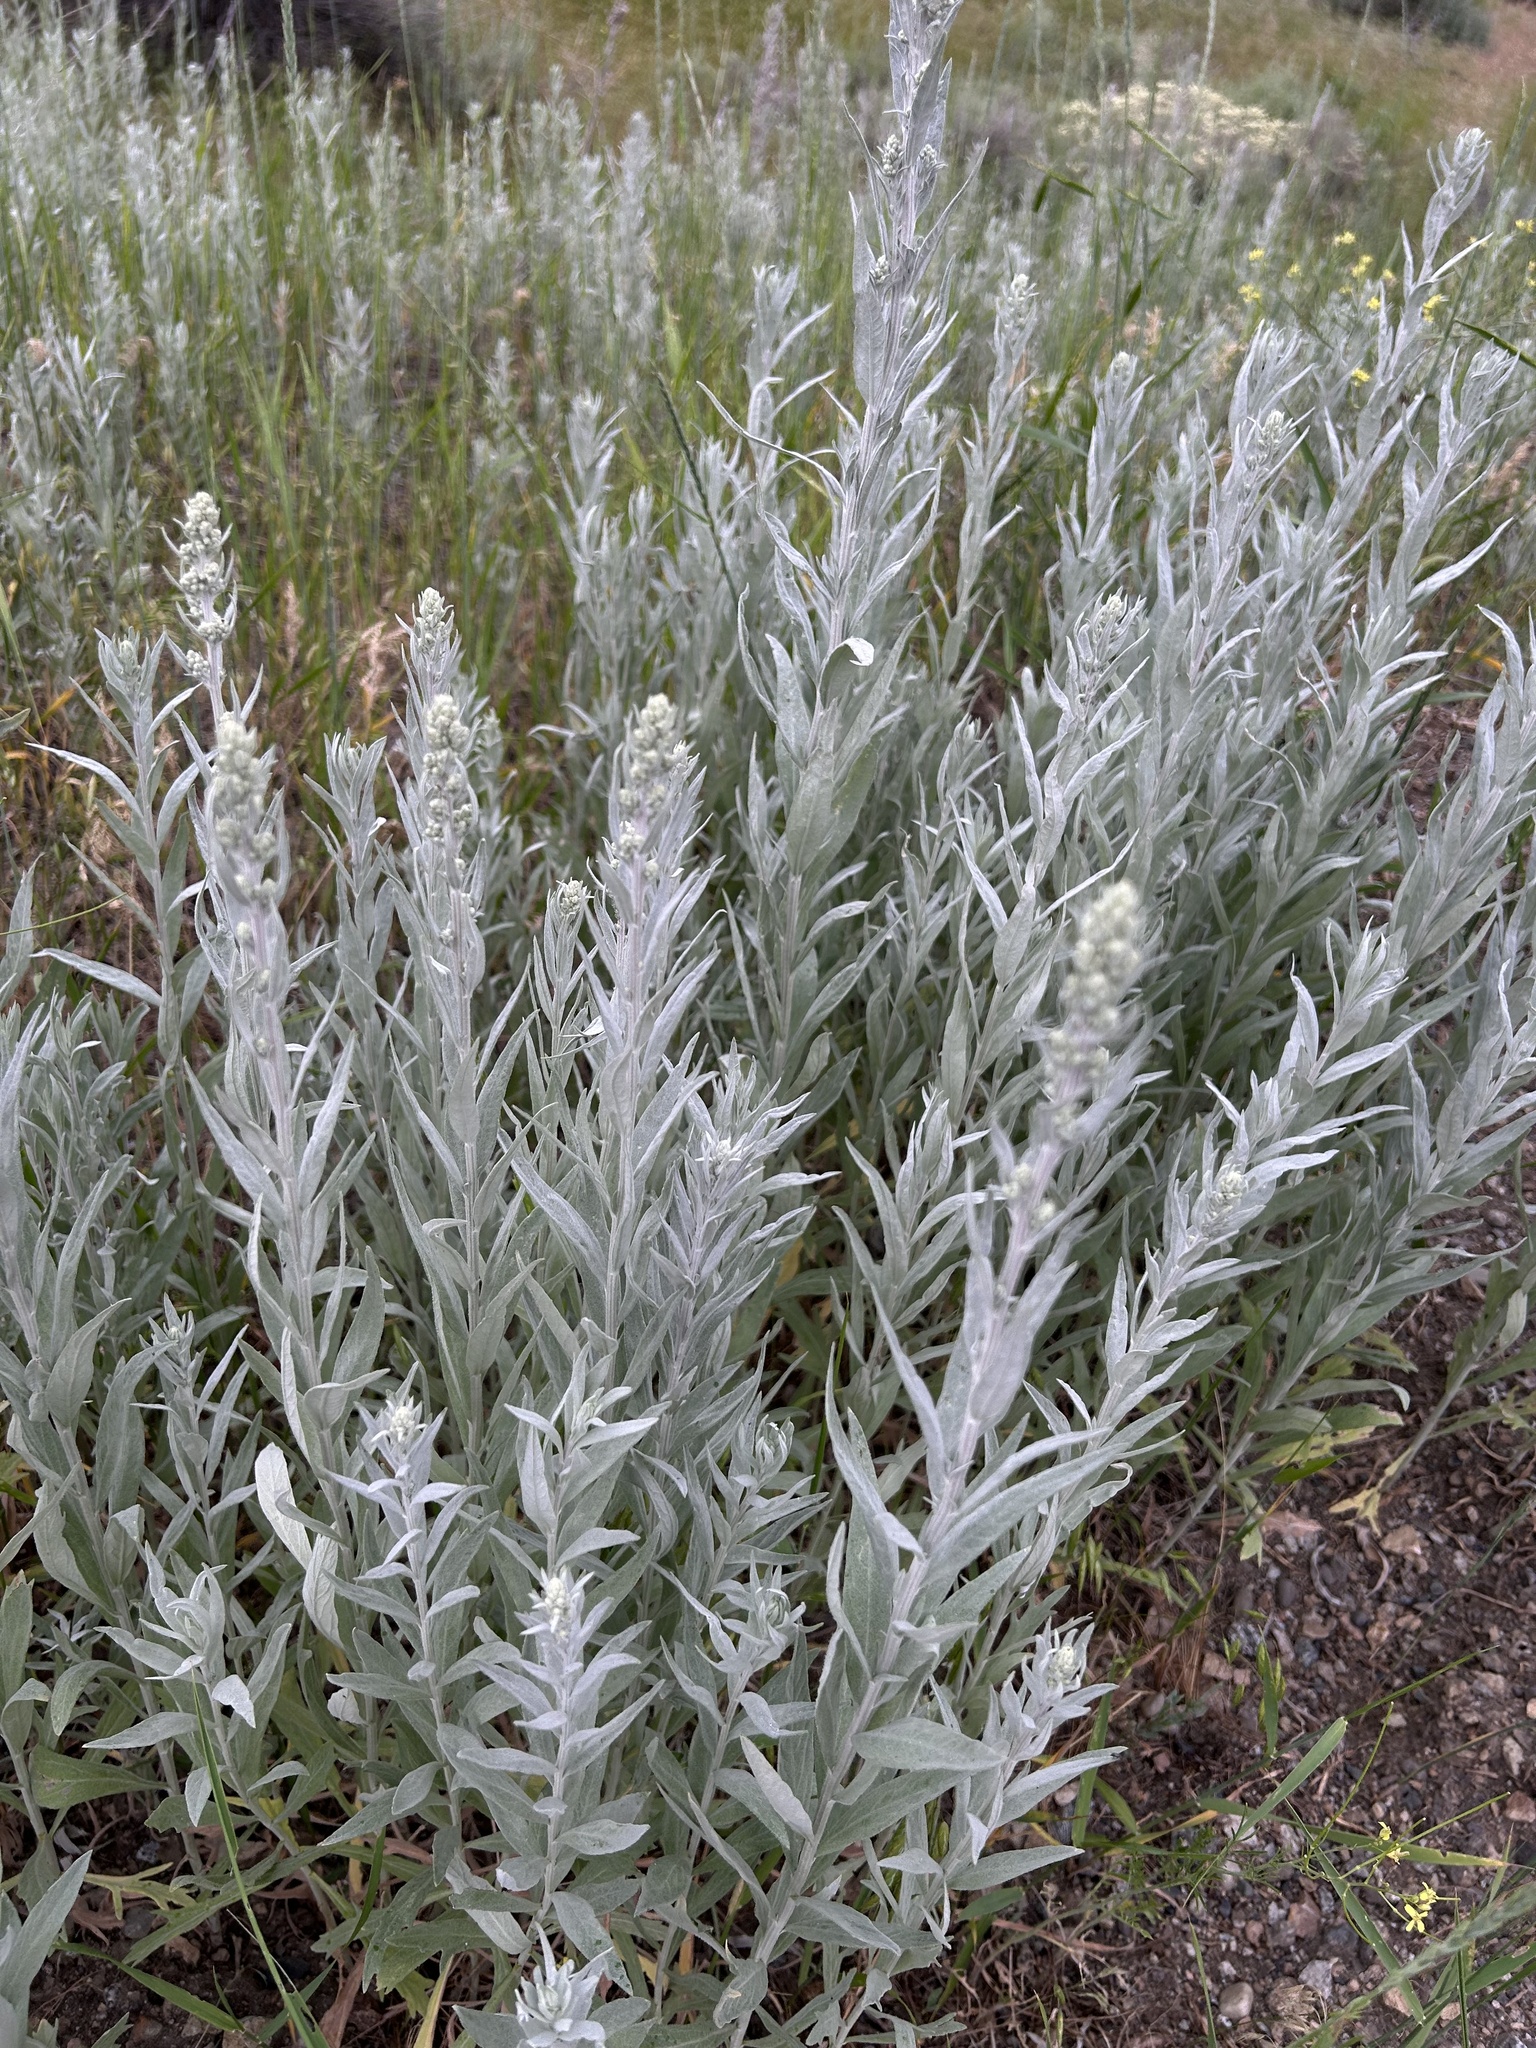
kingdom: Plantae
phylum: Tracheophyta
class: Magnoliopsida
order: Asterales
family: Asteraceae
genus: Artemisia
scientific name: Artemisia ludoviciana
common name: Western mugwort
